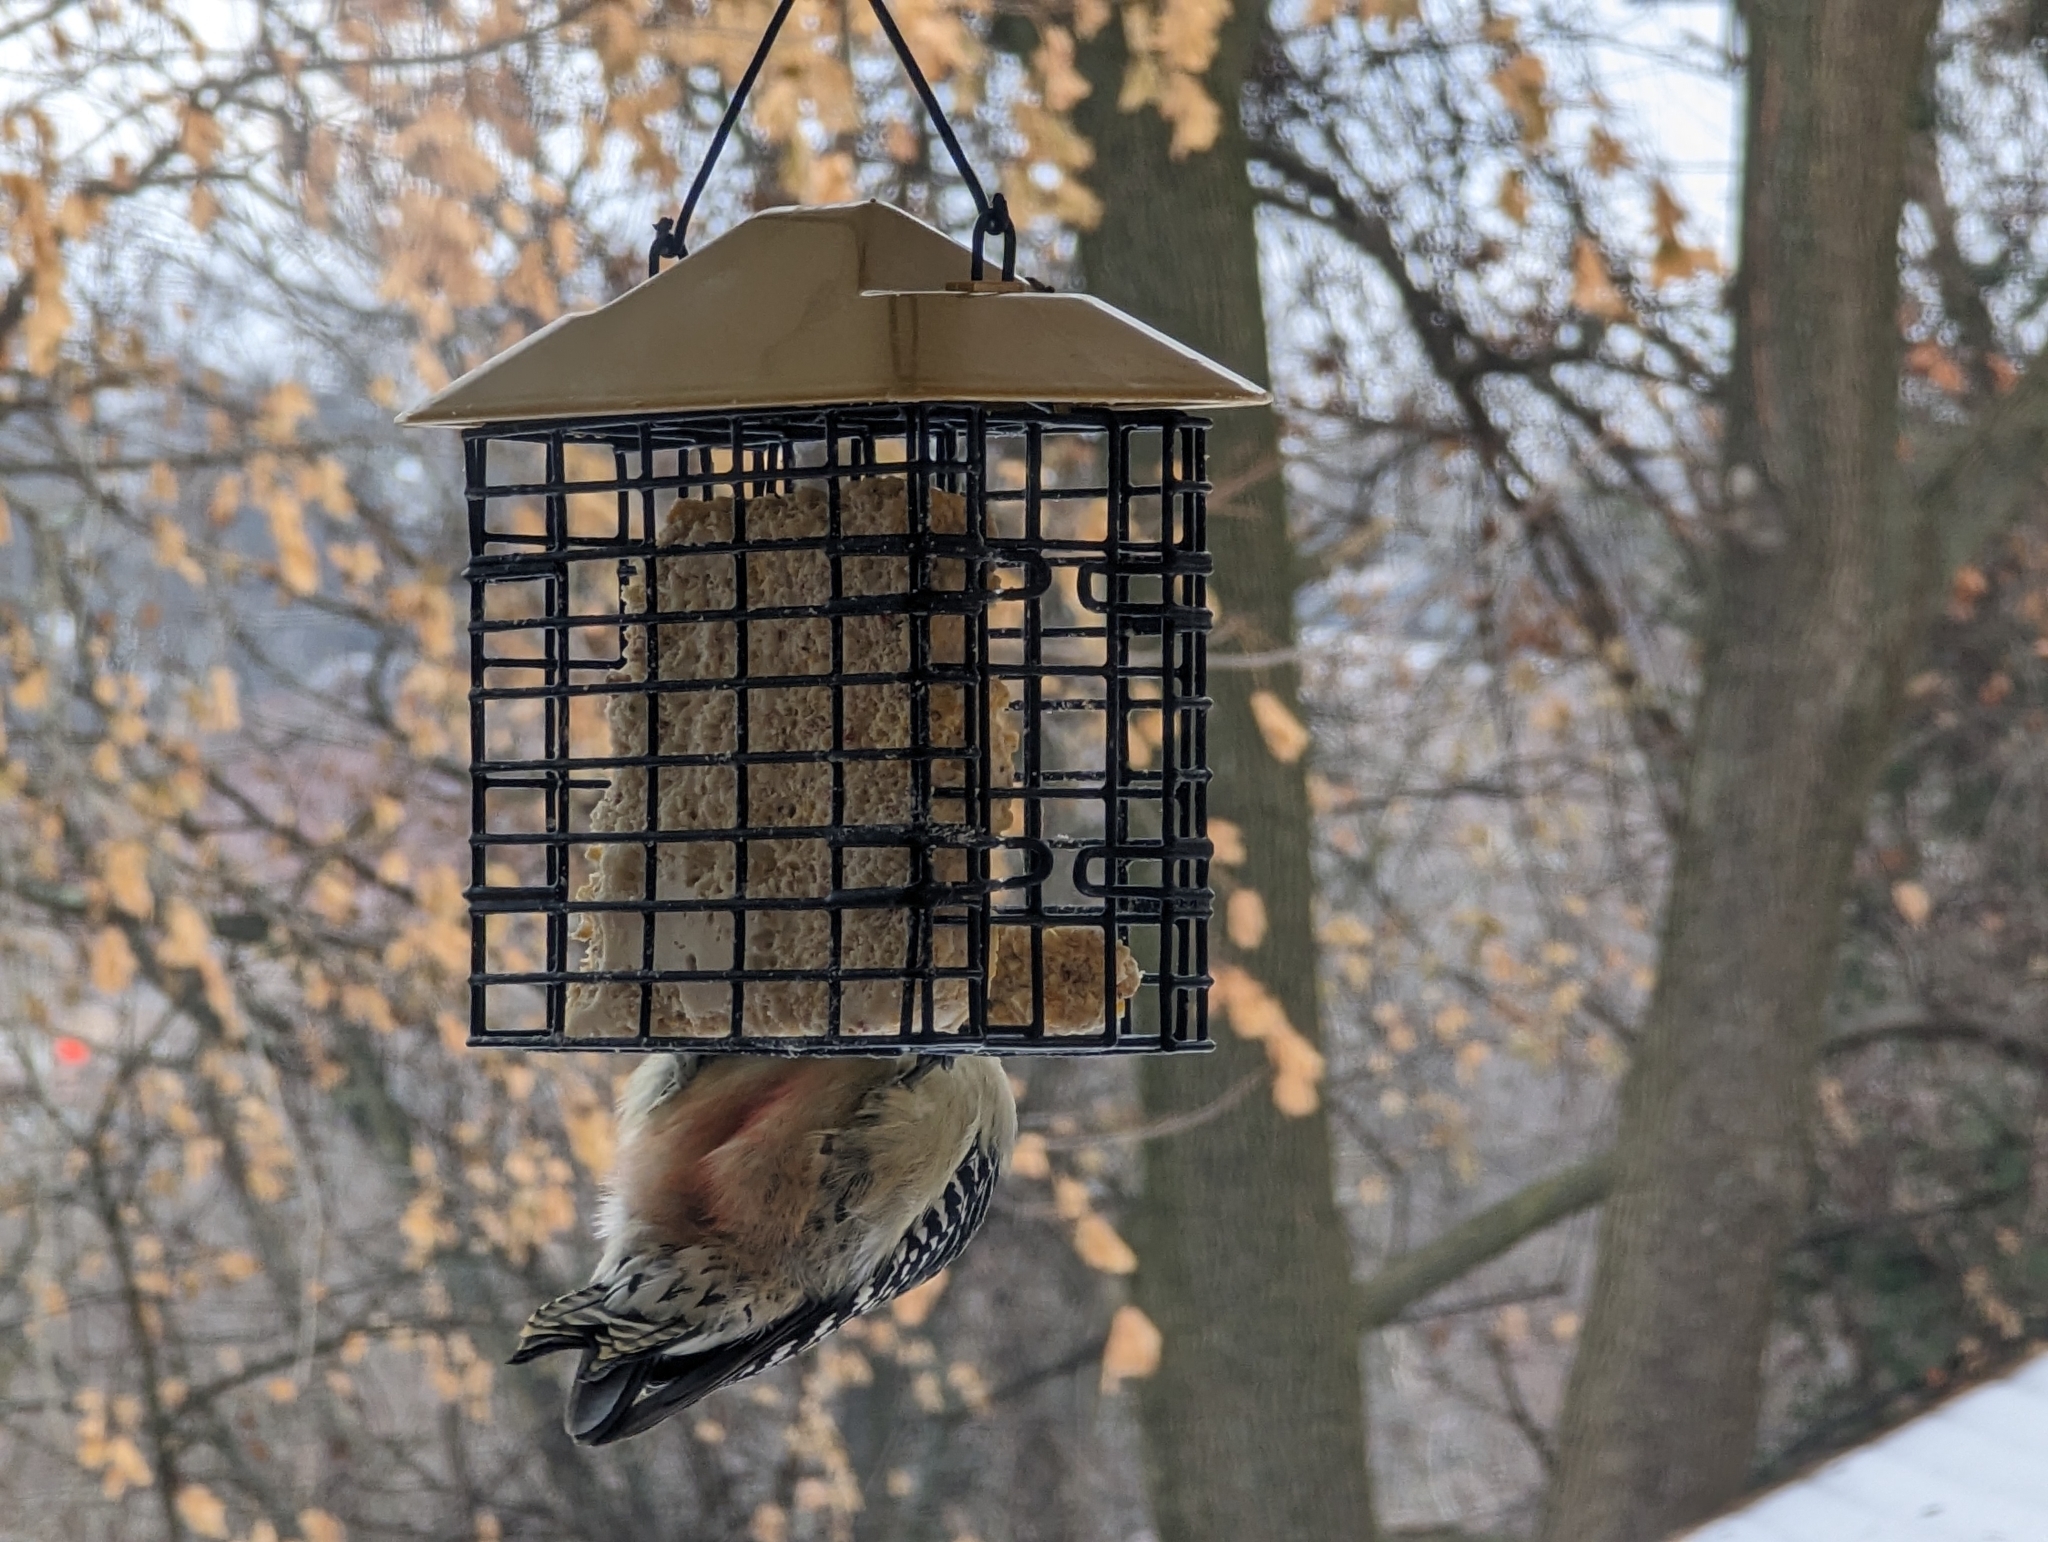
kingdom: Animalia
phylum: Chordata
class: Aves
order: Piciformes
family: Picidae
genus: Melanerpes
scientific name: Melanerpes carolinus
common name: Red-bellied woodpecker
